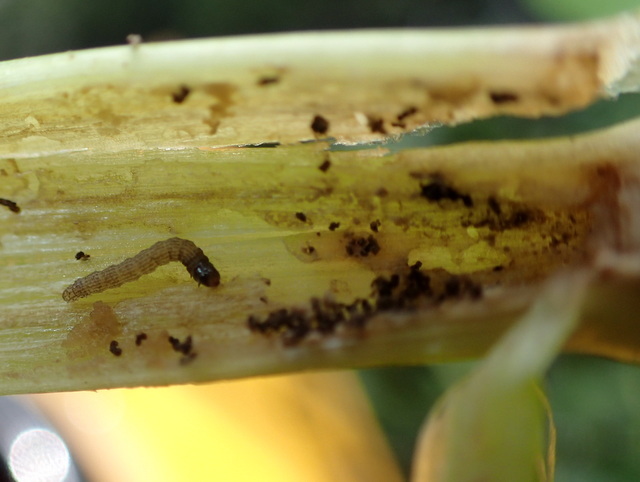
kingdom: Animalia
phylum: Arthropoda
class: Insecta
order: Lepidoptera
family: Pyralidae
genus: Macrorrhinia
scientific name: Macrorrhinia endonephele
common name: Alligator weed stemborer moth
